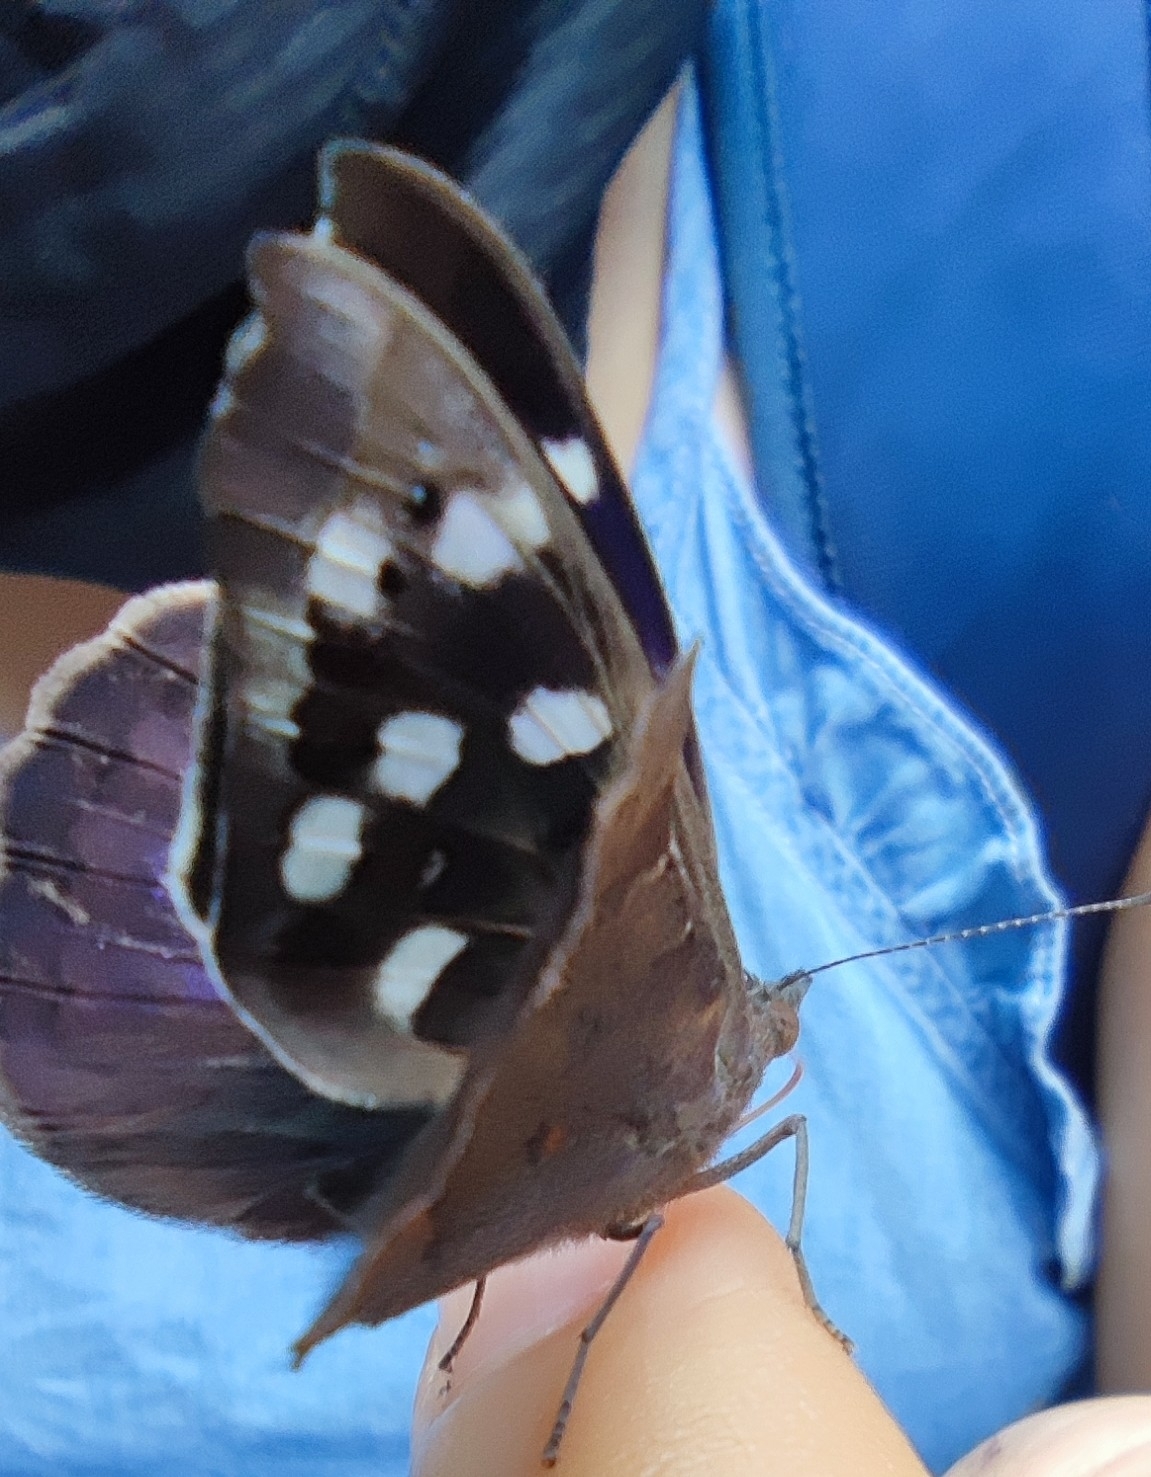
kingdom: Animalia
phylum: Arthropoda
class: Insecta
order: Lepidoptera
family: Nymphalidae
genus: Eunica
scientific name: Eunica tatila
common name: Florida purplewing
